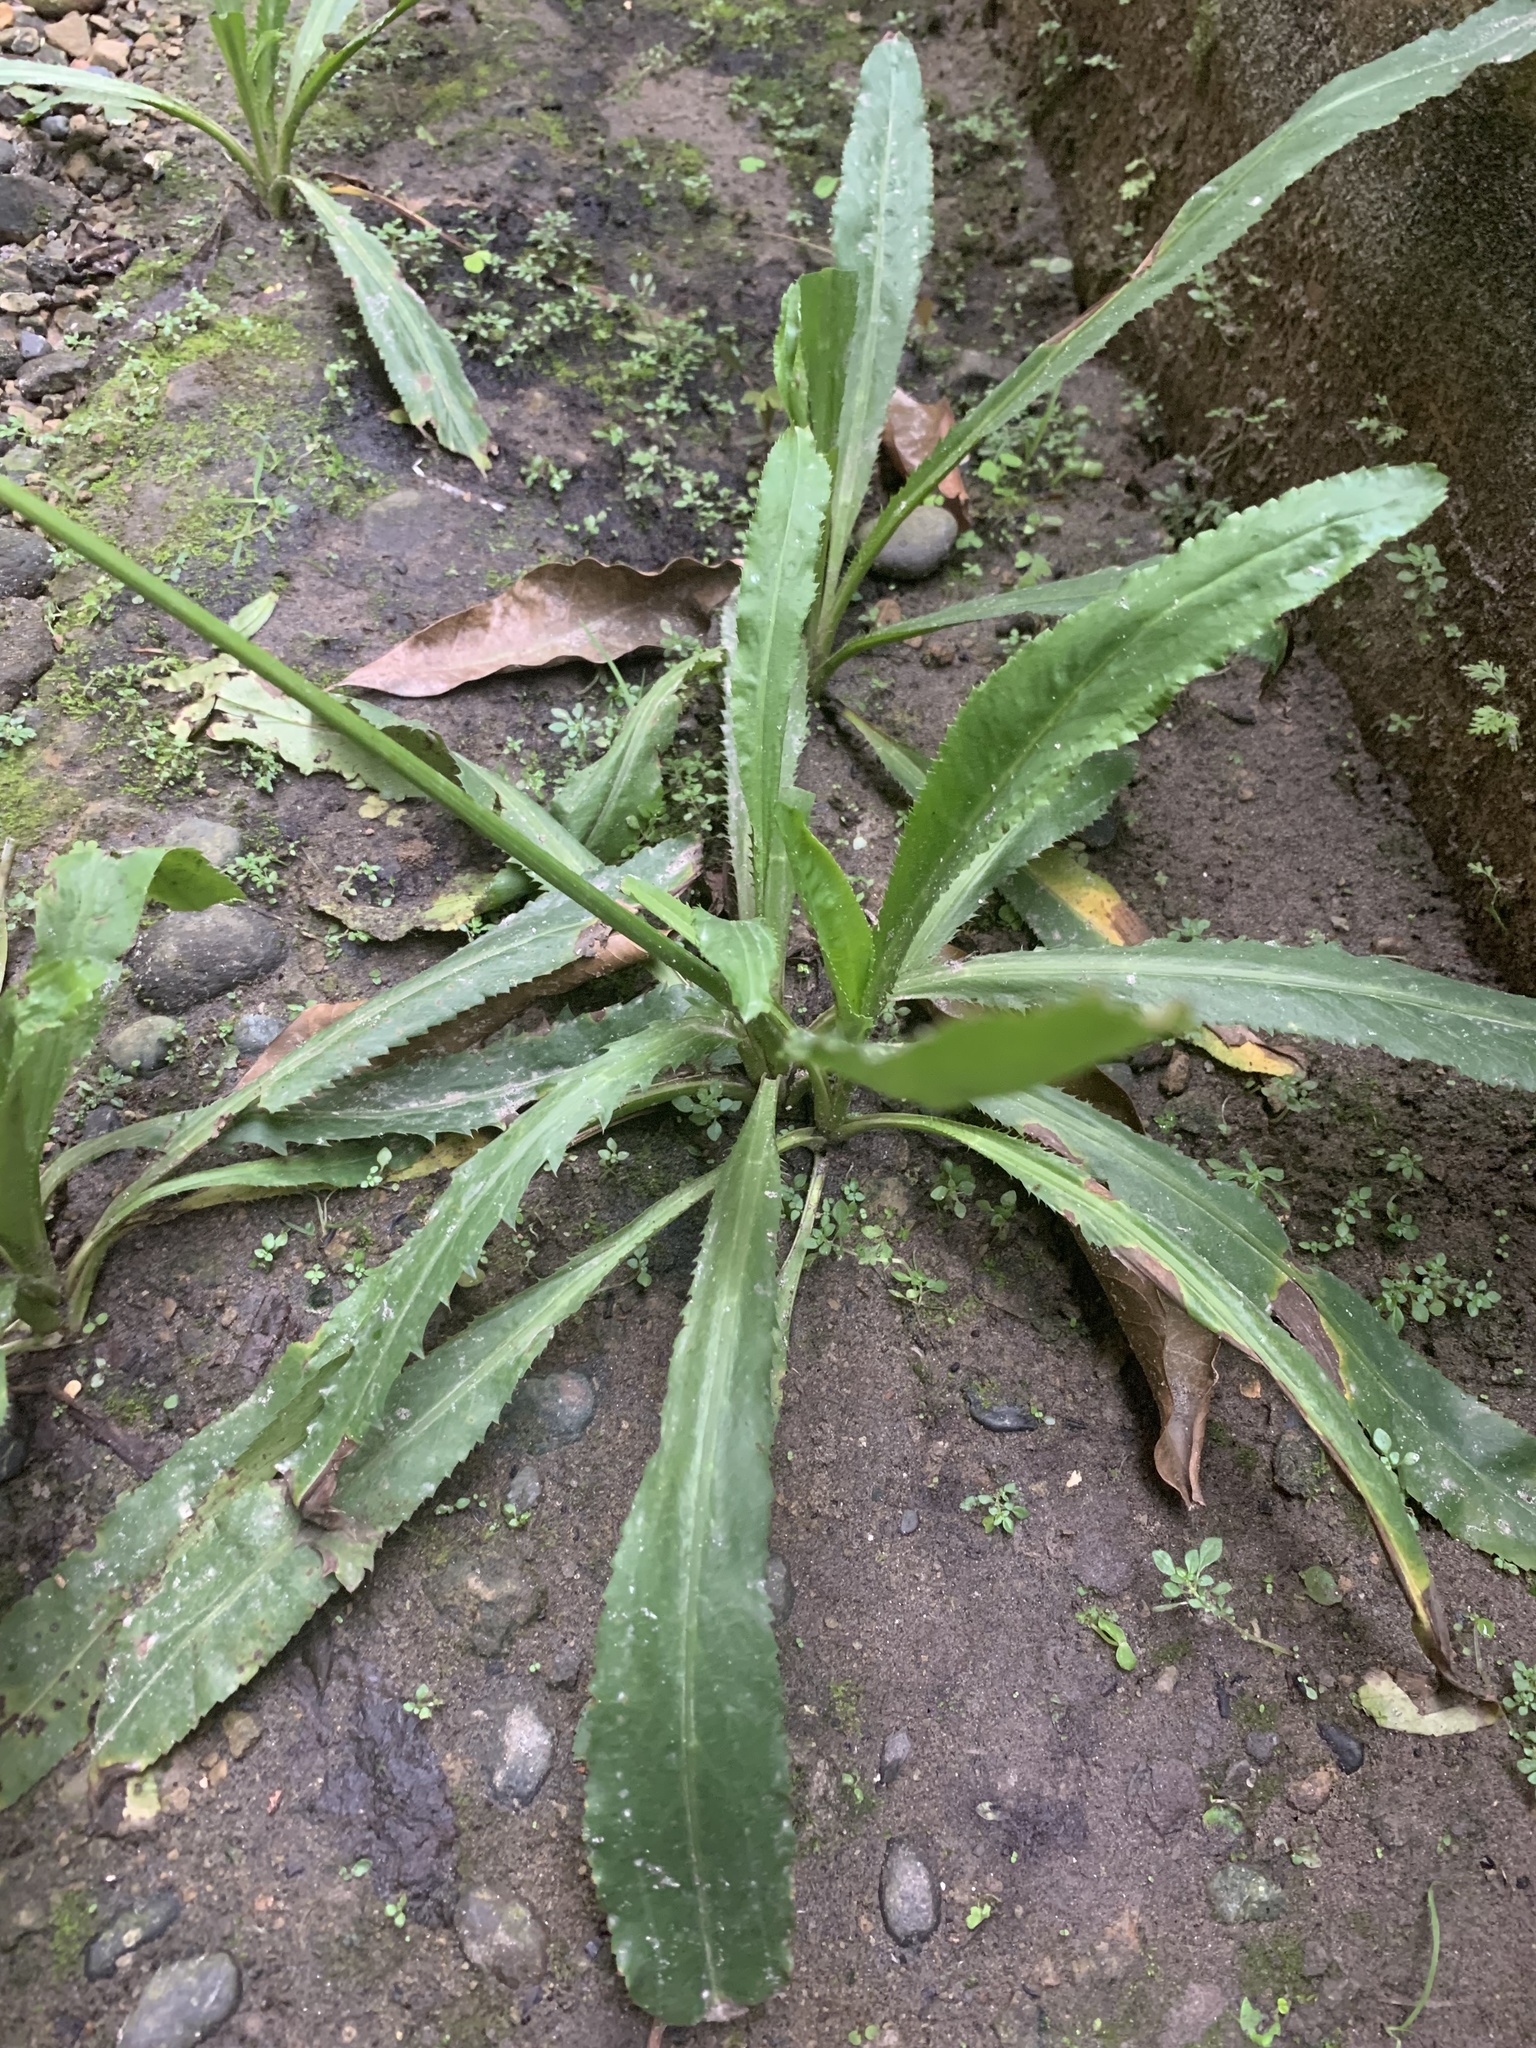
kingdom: Plantae
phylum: Tracheophyta
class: Magnoliopsida
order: Apiales
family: Apiaceae
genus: Eryngium
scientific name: Eryngium foetidum
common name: Fitweed
